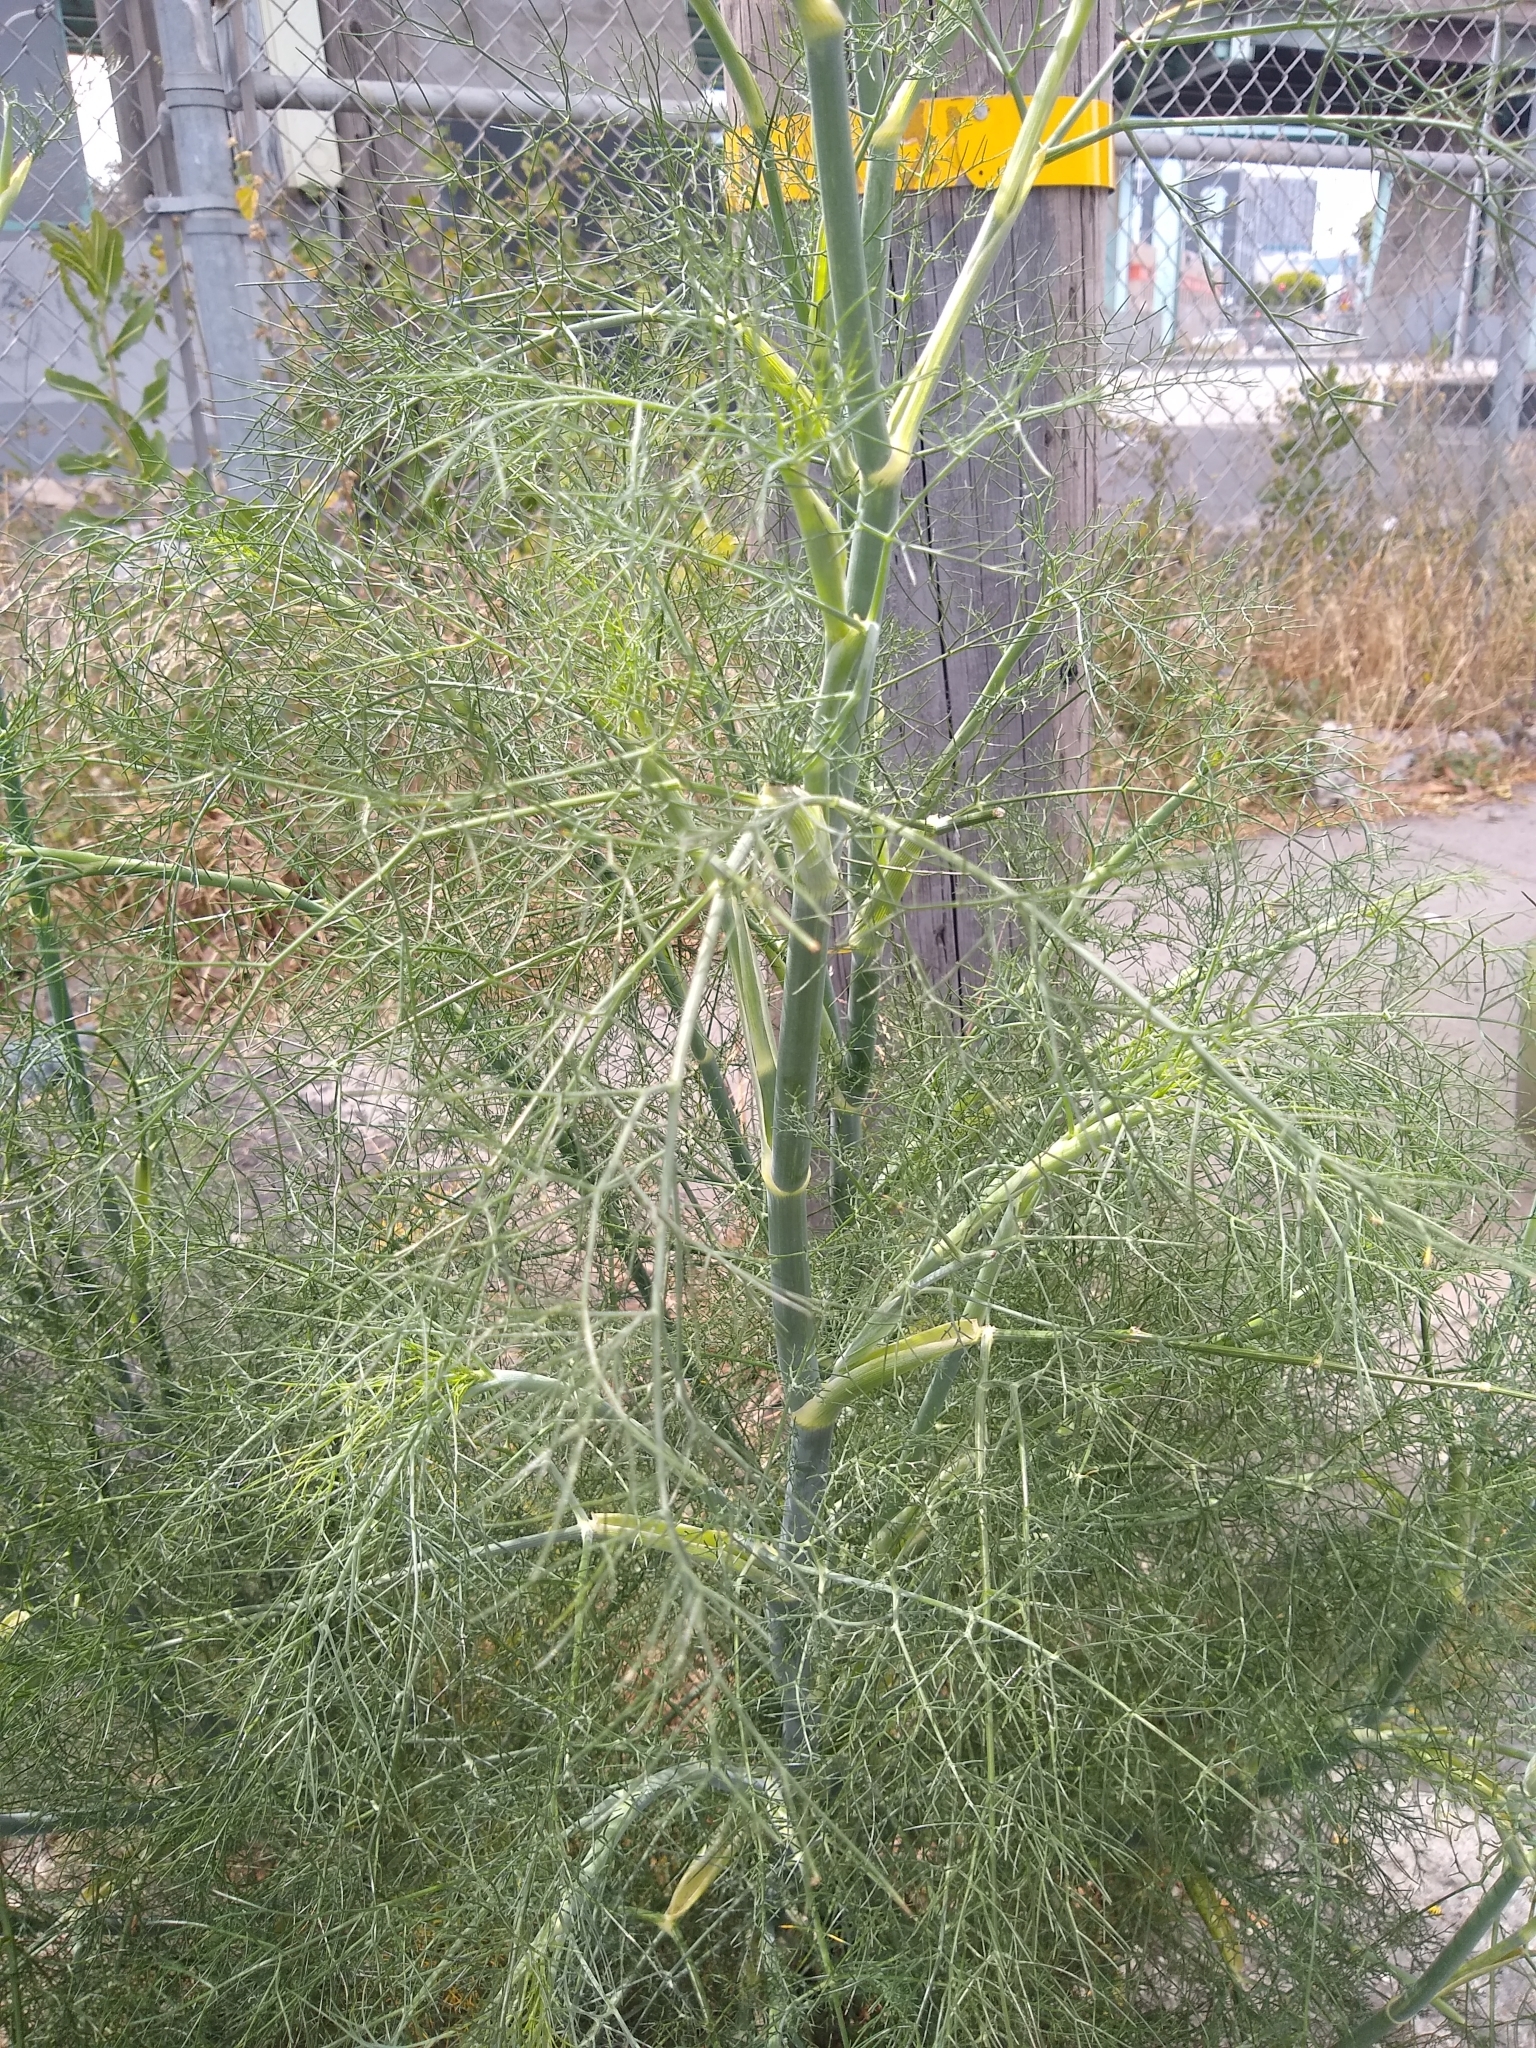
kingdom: Plantae
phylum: Tracheophyta
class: Magnoliopsida
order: Apiales
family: Apiaceae
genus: Foeniculum
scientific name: Foeniculum vulgare
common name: Fennel
